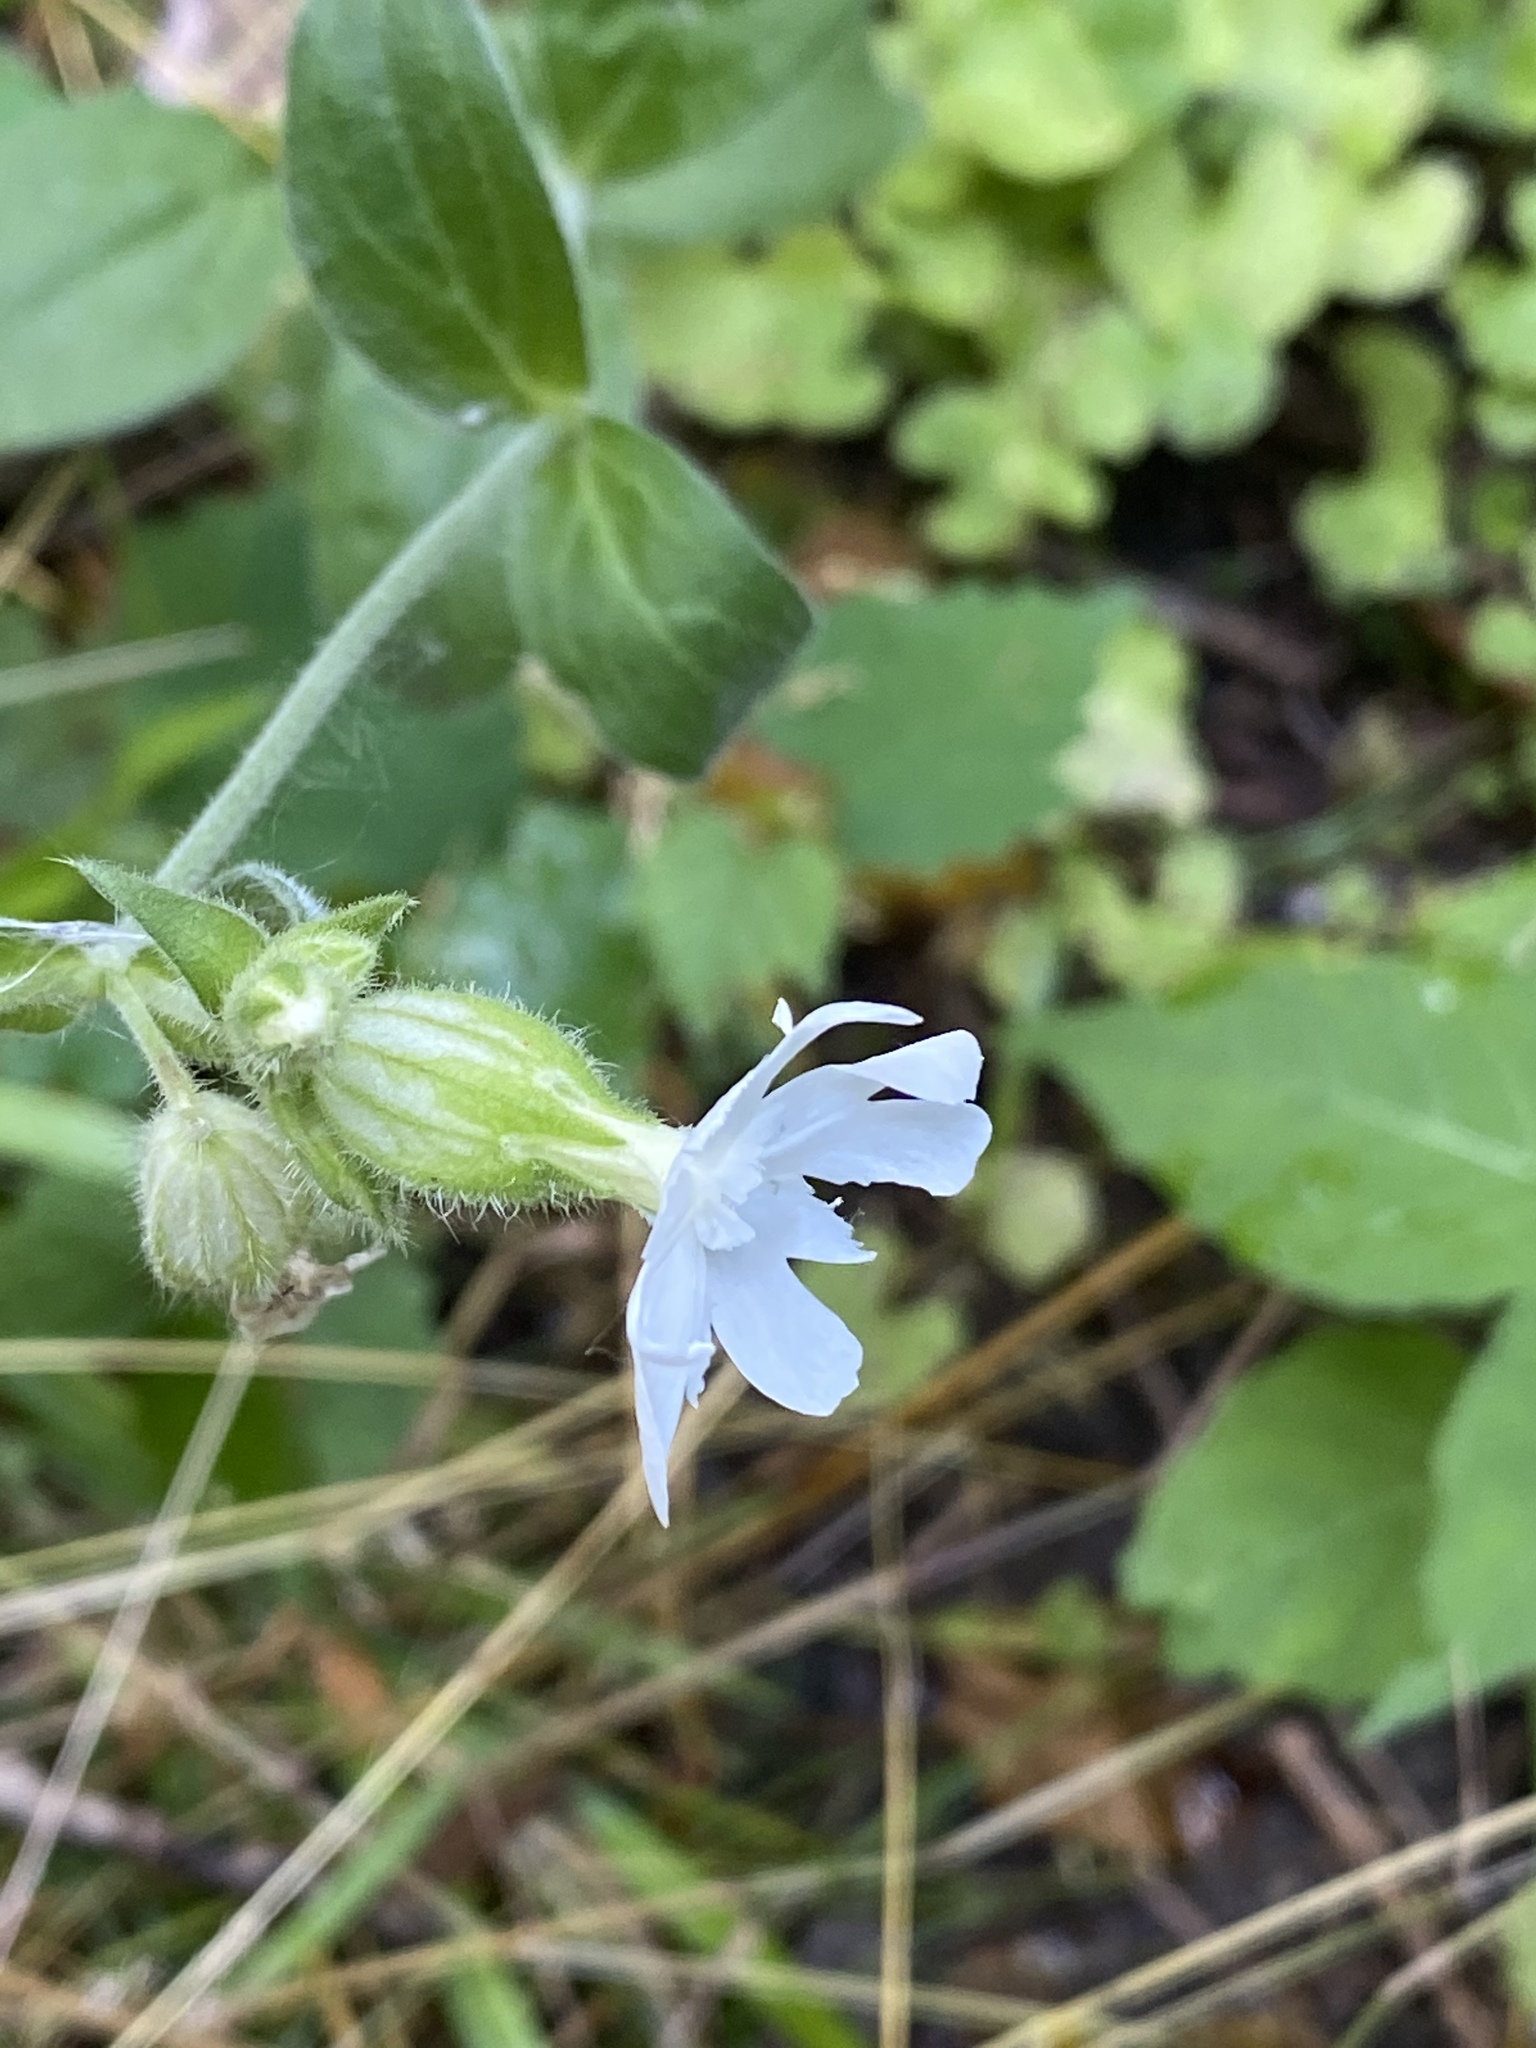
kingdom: Plantae
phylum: Tracheophyta
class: Magnoliopsida
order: Caryophyllales
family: Caryophyllaceae
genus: Silene
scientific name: Silene latifolia
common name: White campion
